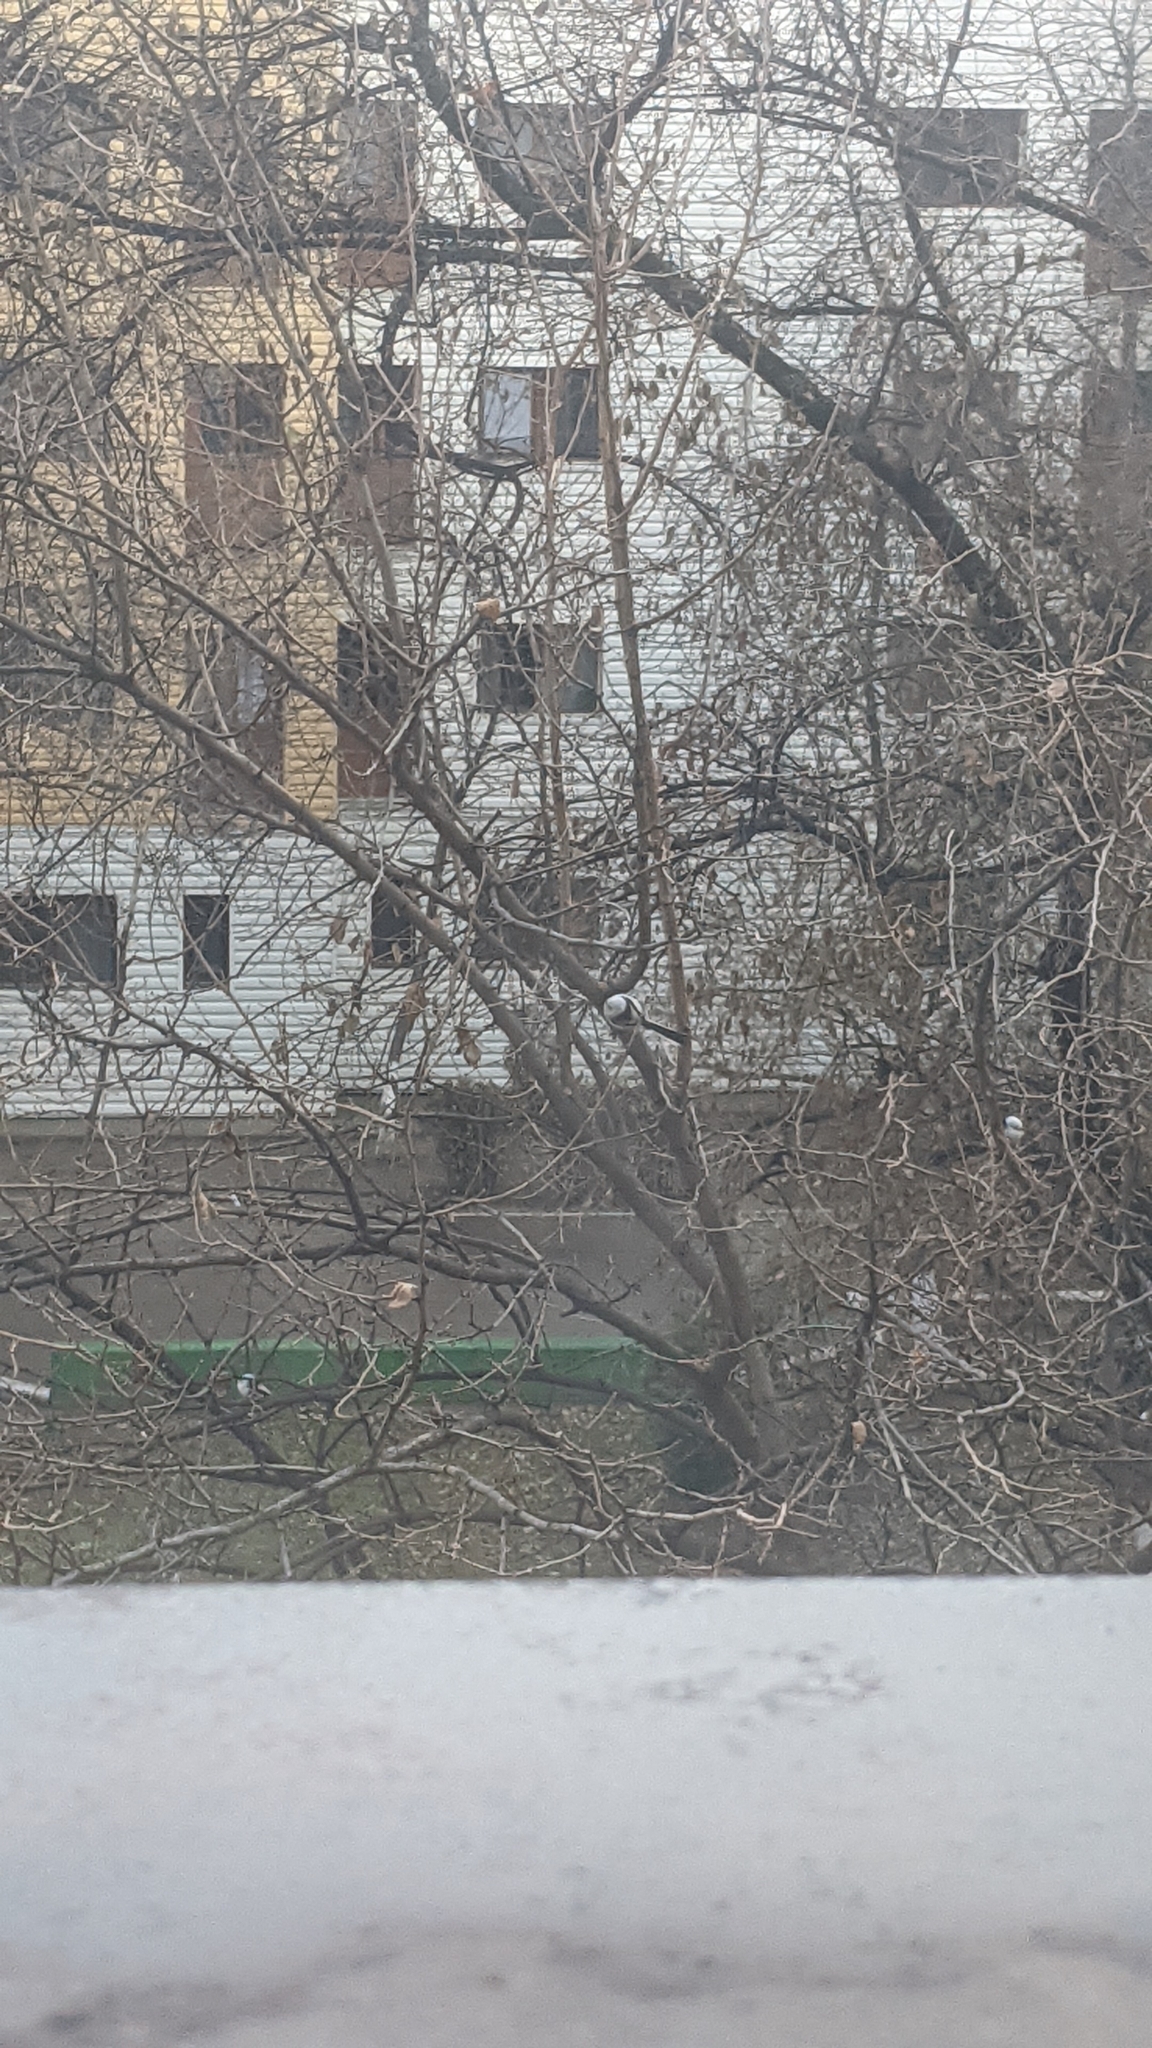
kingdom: Animalia
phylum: Chordata
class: Aves
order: Passeriformes
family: Aegithalidae
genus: Aegithalos
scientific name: Aegithalos caudatus
